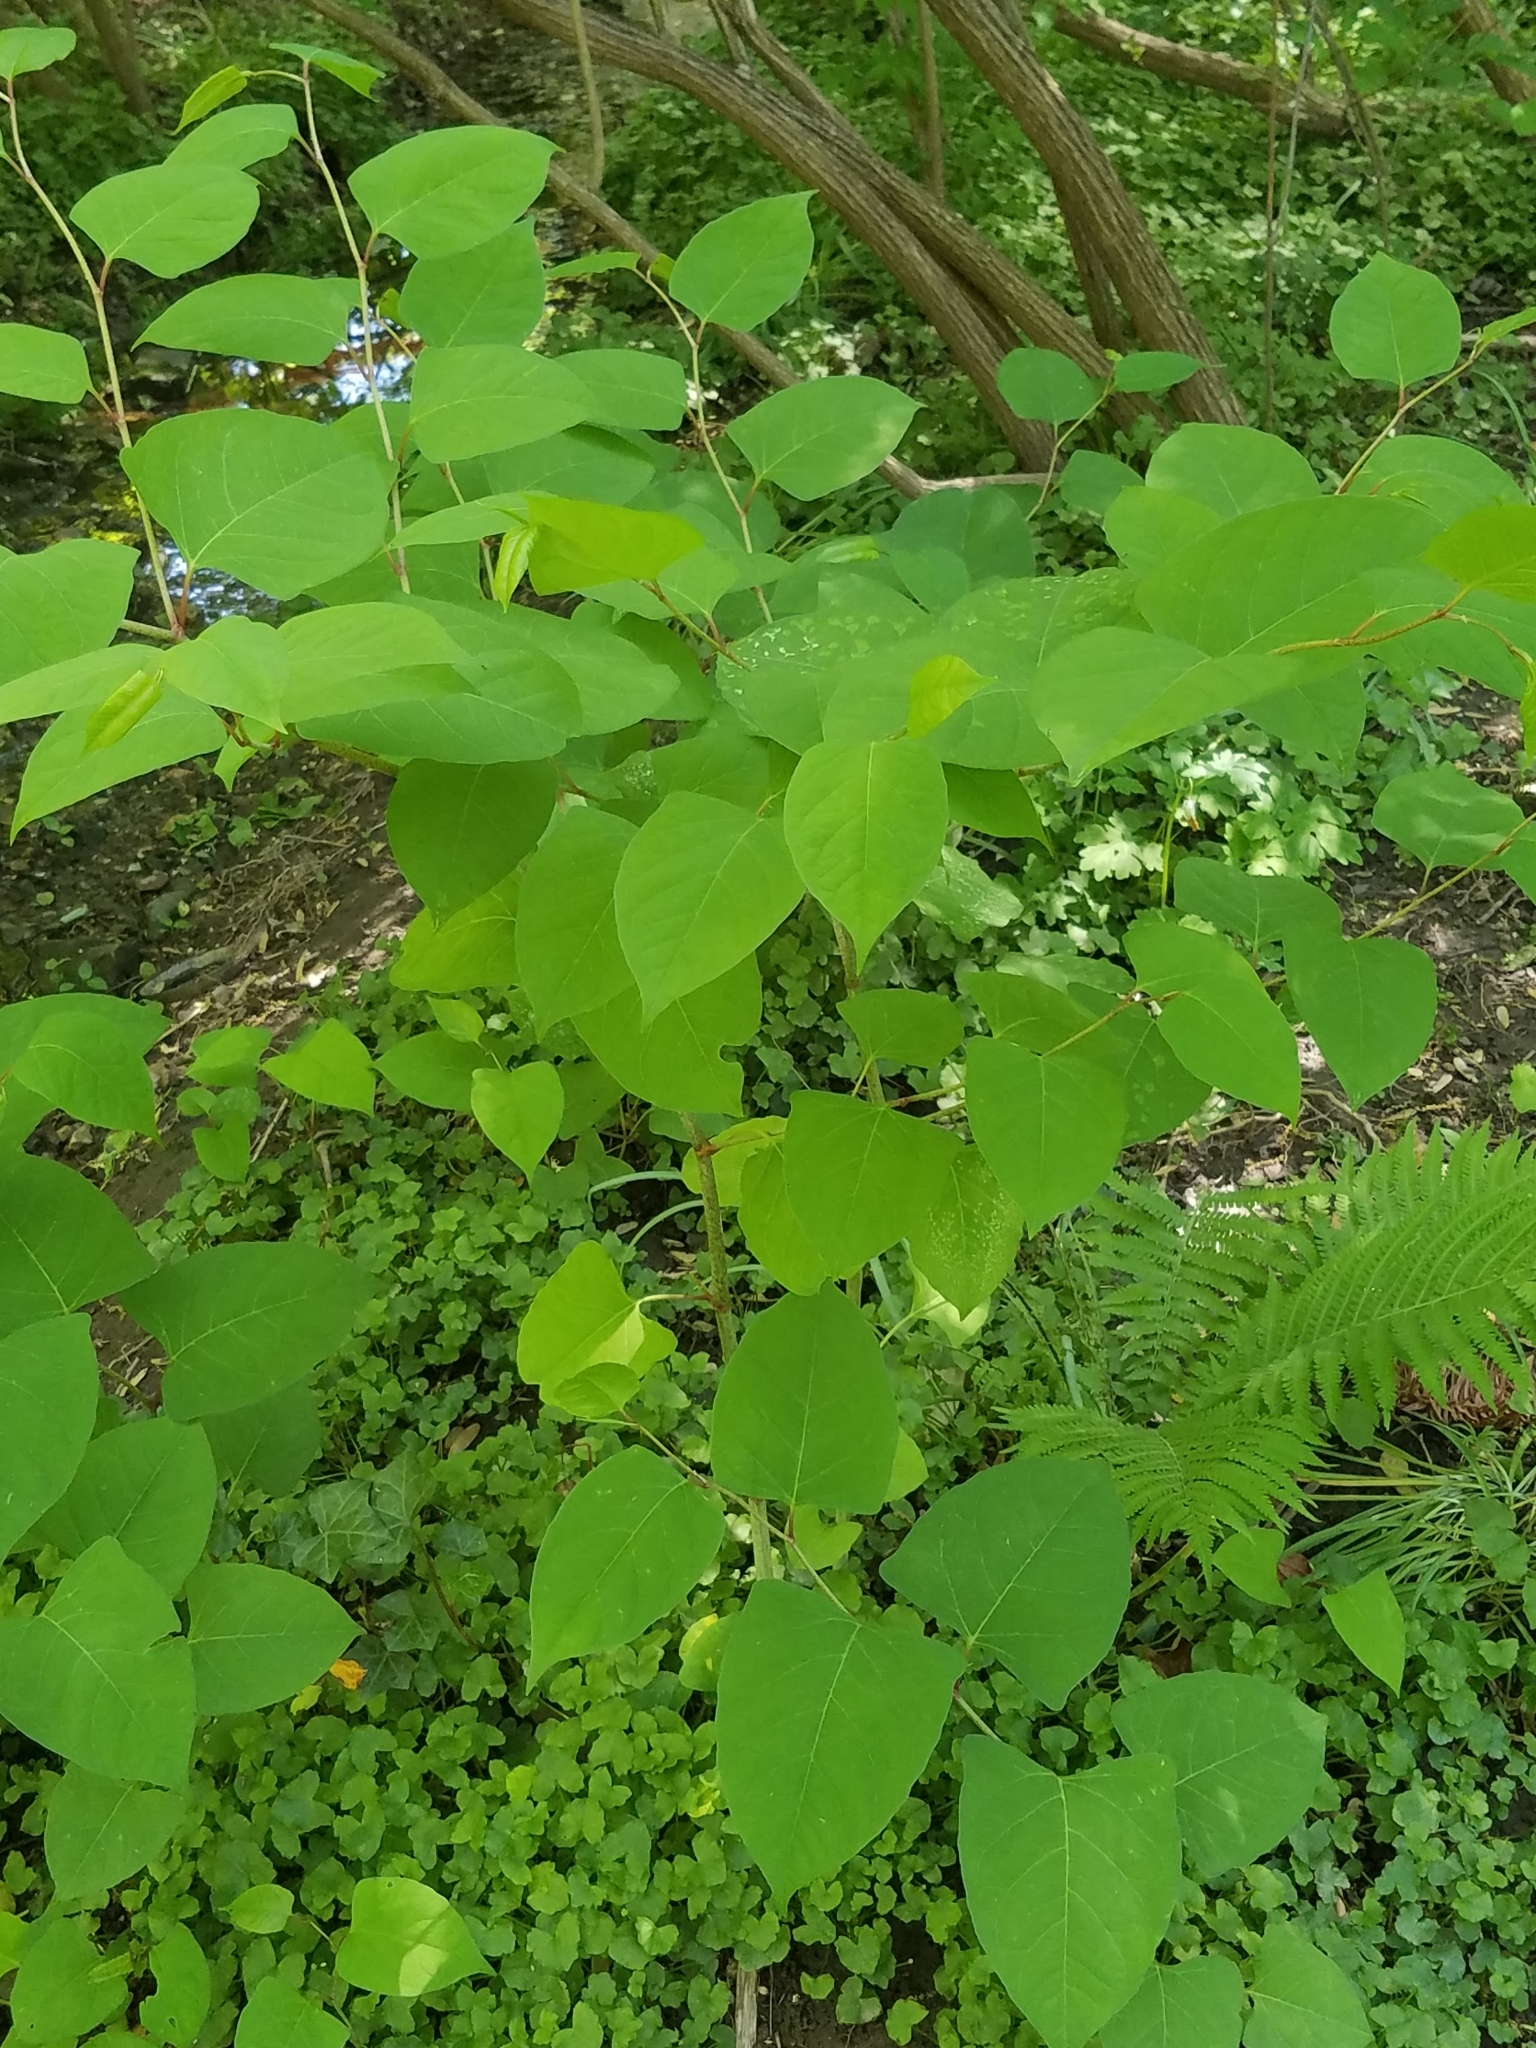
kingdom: Plantae
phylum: Tracheophyta
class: Magnoliopsida
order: Caryophyllales
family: Polygonaceae
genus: Reynoutria
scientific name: Reynoutria japonica
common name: Japanese knotweed
